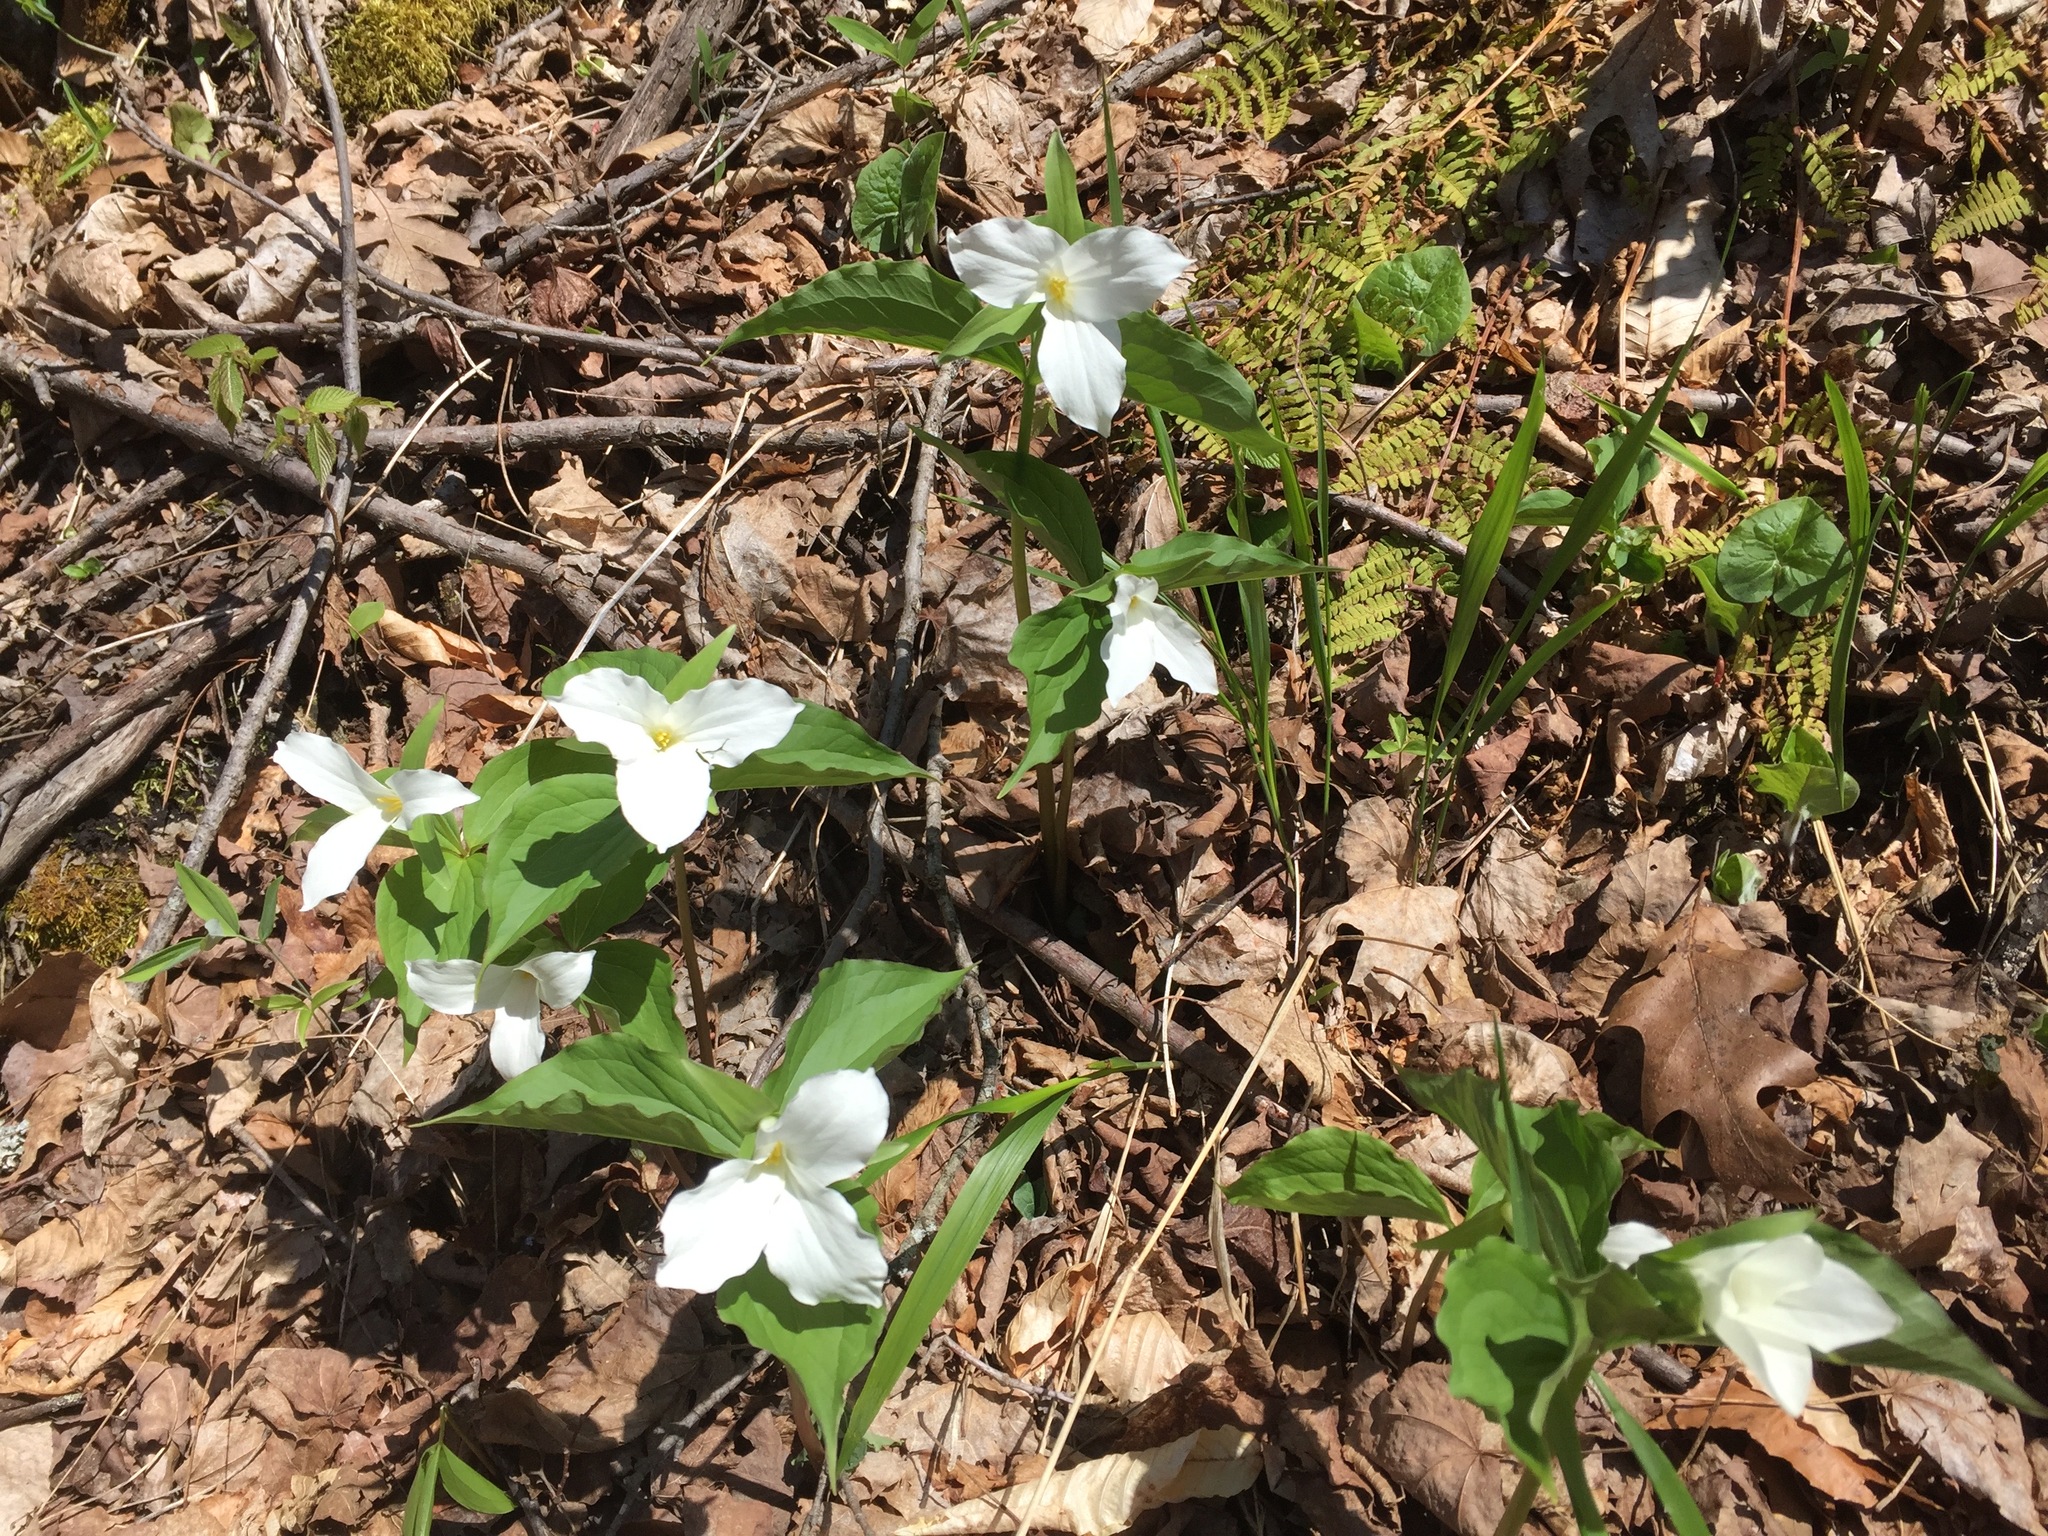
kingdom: Plantae
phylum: Tracheophyta
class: Liliopsida
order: Liliales
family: Melanthiaceae
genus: Trillium
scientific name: Trillium grandiflorum
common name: Great white trillium
